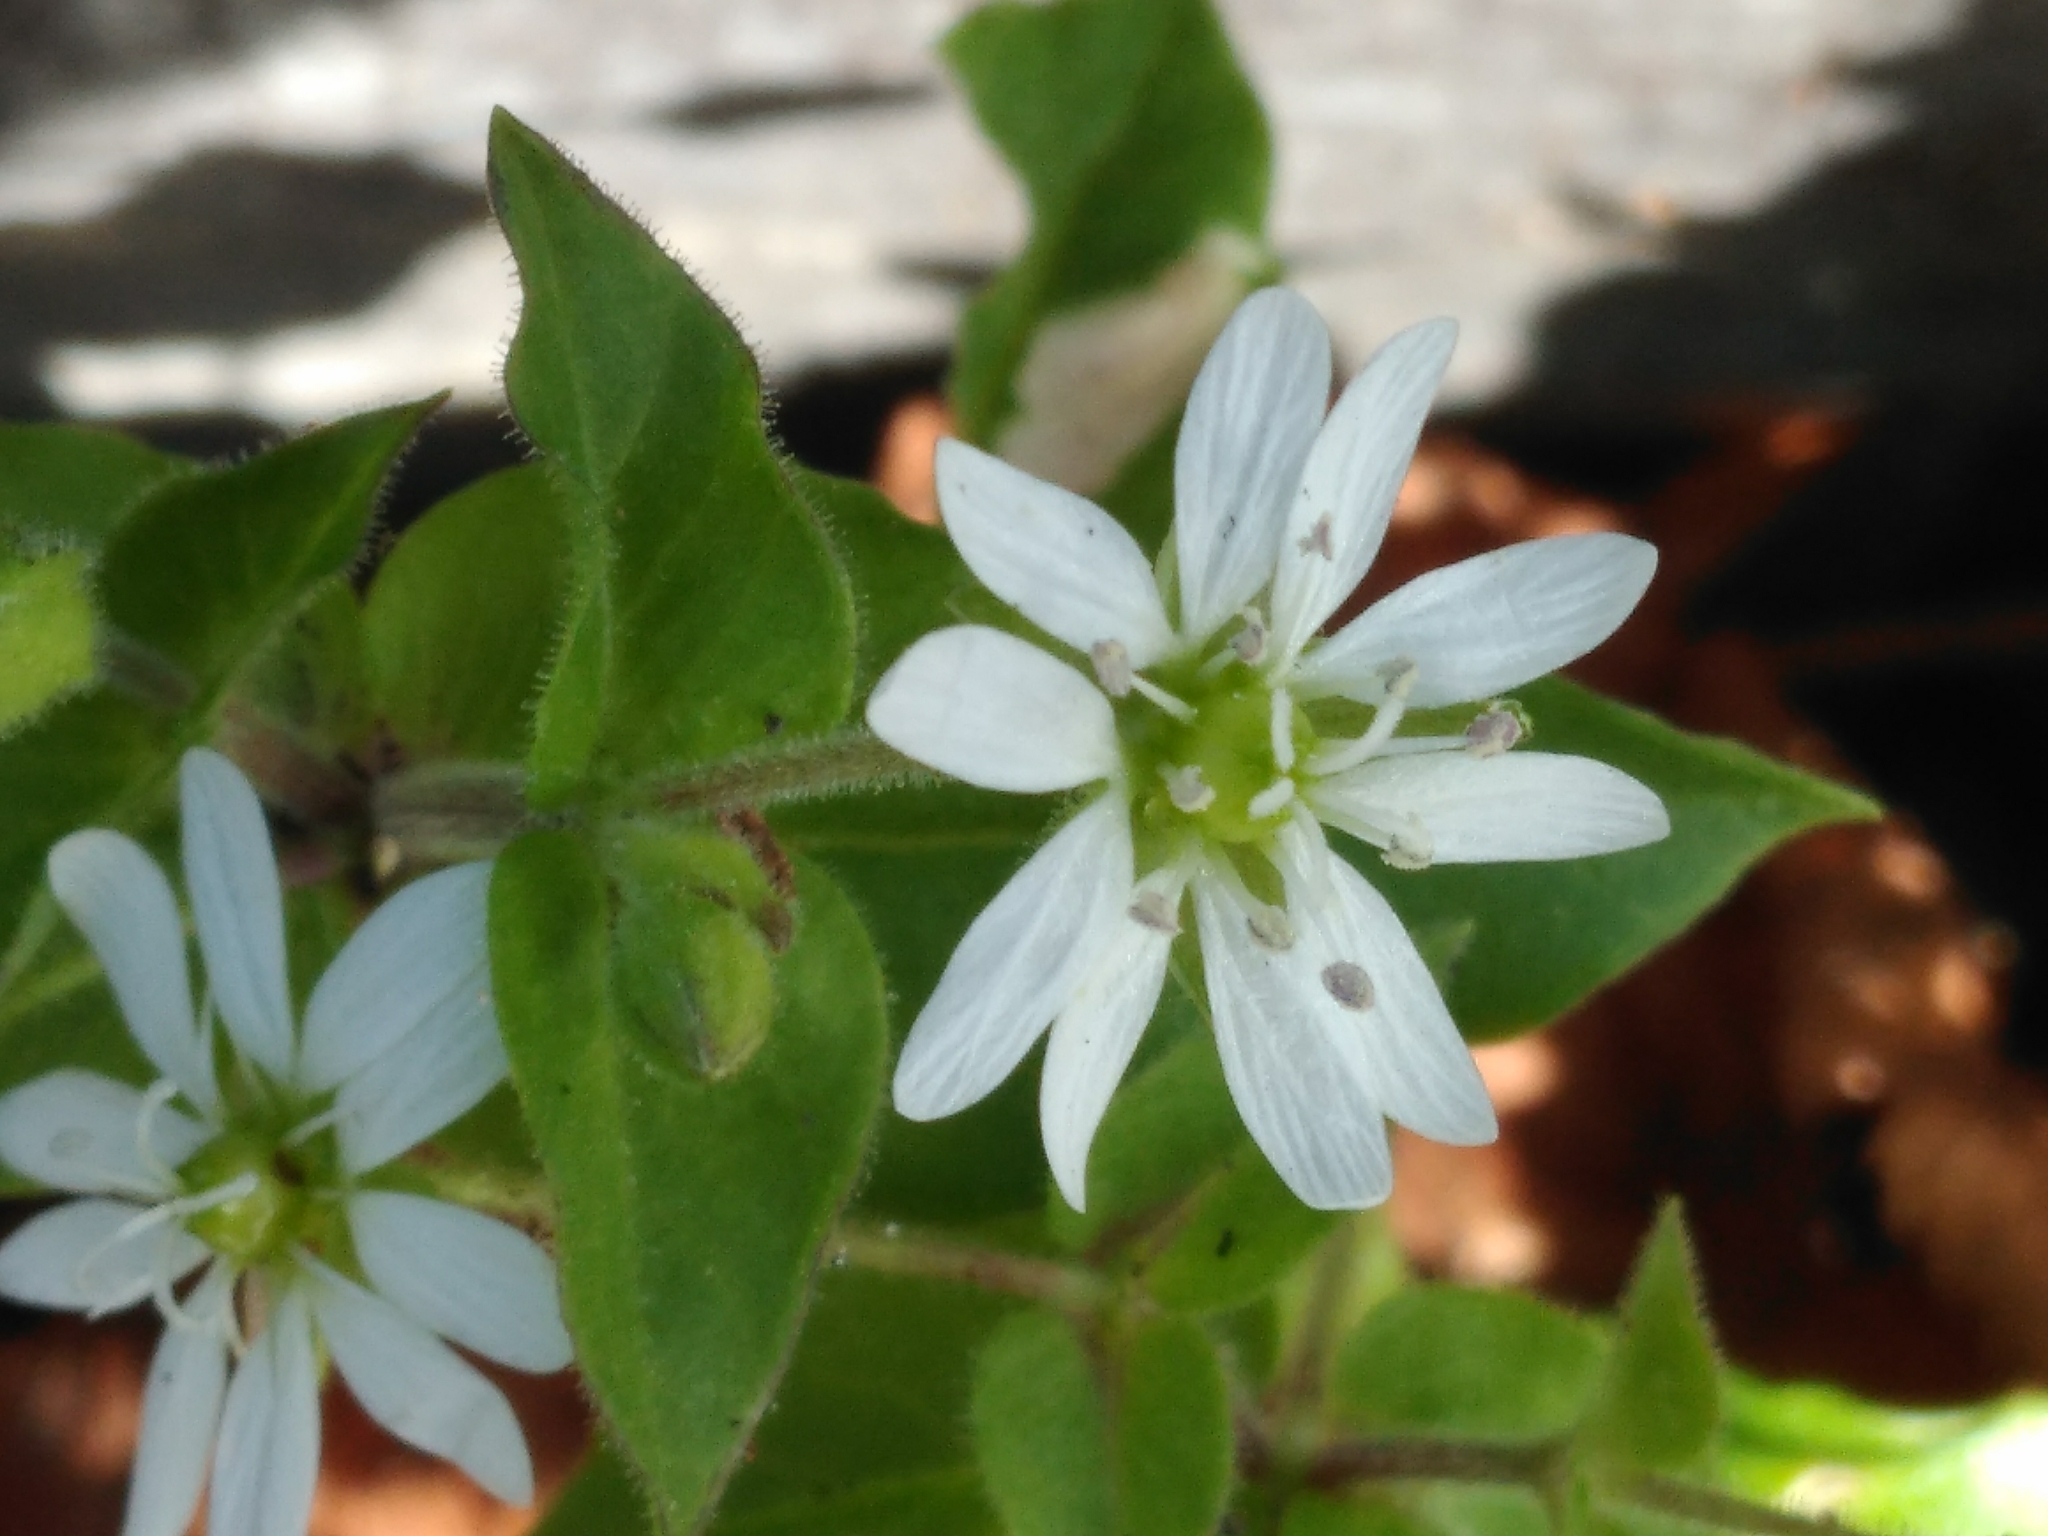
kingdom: Plantae
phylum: Tracheophyta
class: Magnoliopsida
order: Caryophyllales
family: Caryophyllaceae
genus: Stellaria
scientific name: Stellaria aquatica
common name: Water chickweed
